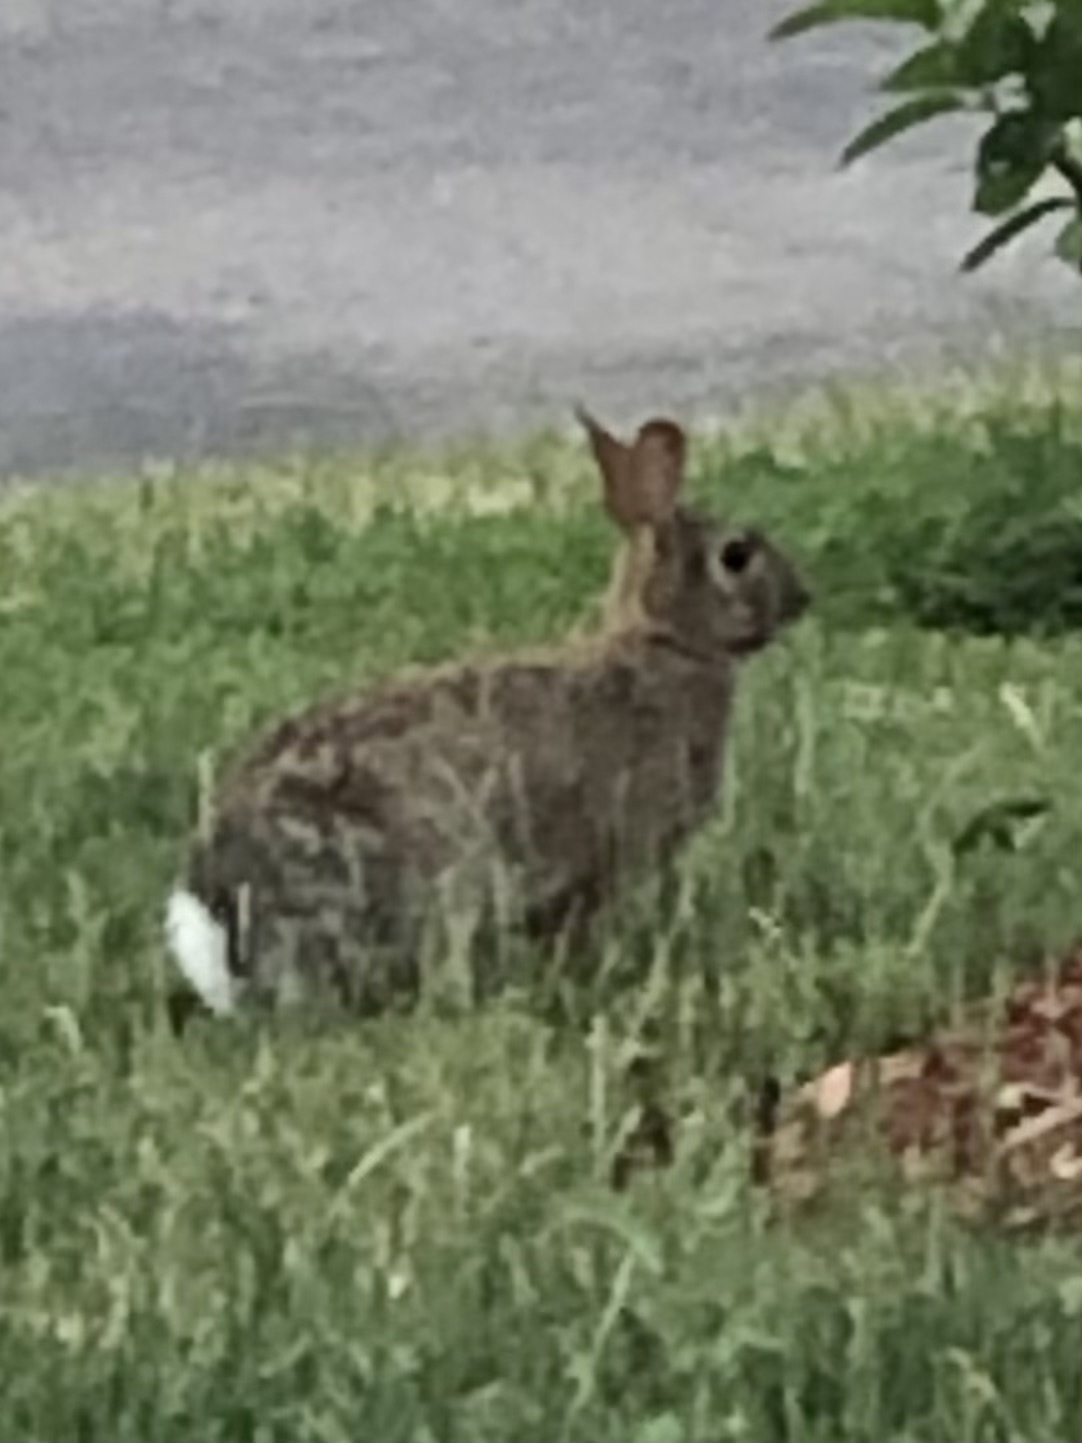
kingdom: Animalia
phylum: Chordata
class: Mammalia
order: Lagomorpha
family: Leporidae
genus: Sylvilagus
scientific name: Sylvilagus floridanus
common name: Eastern cottontail
